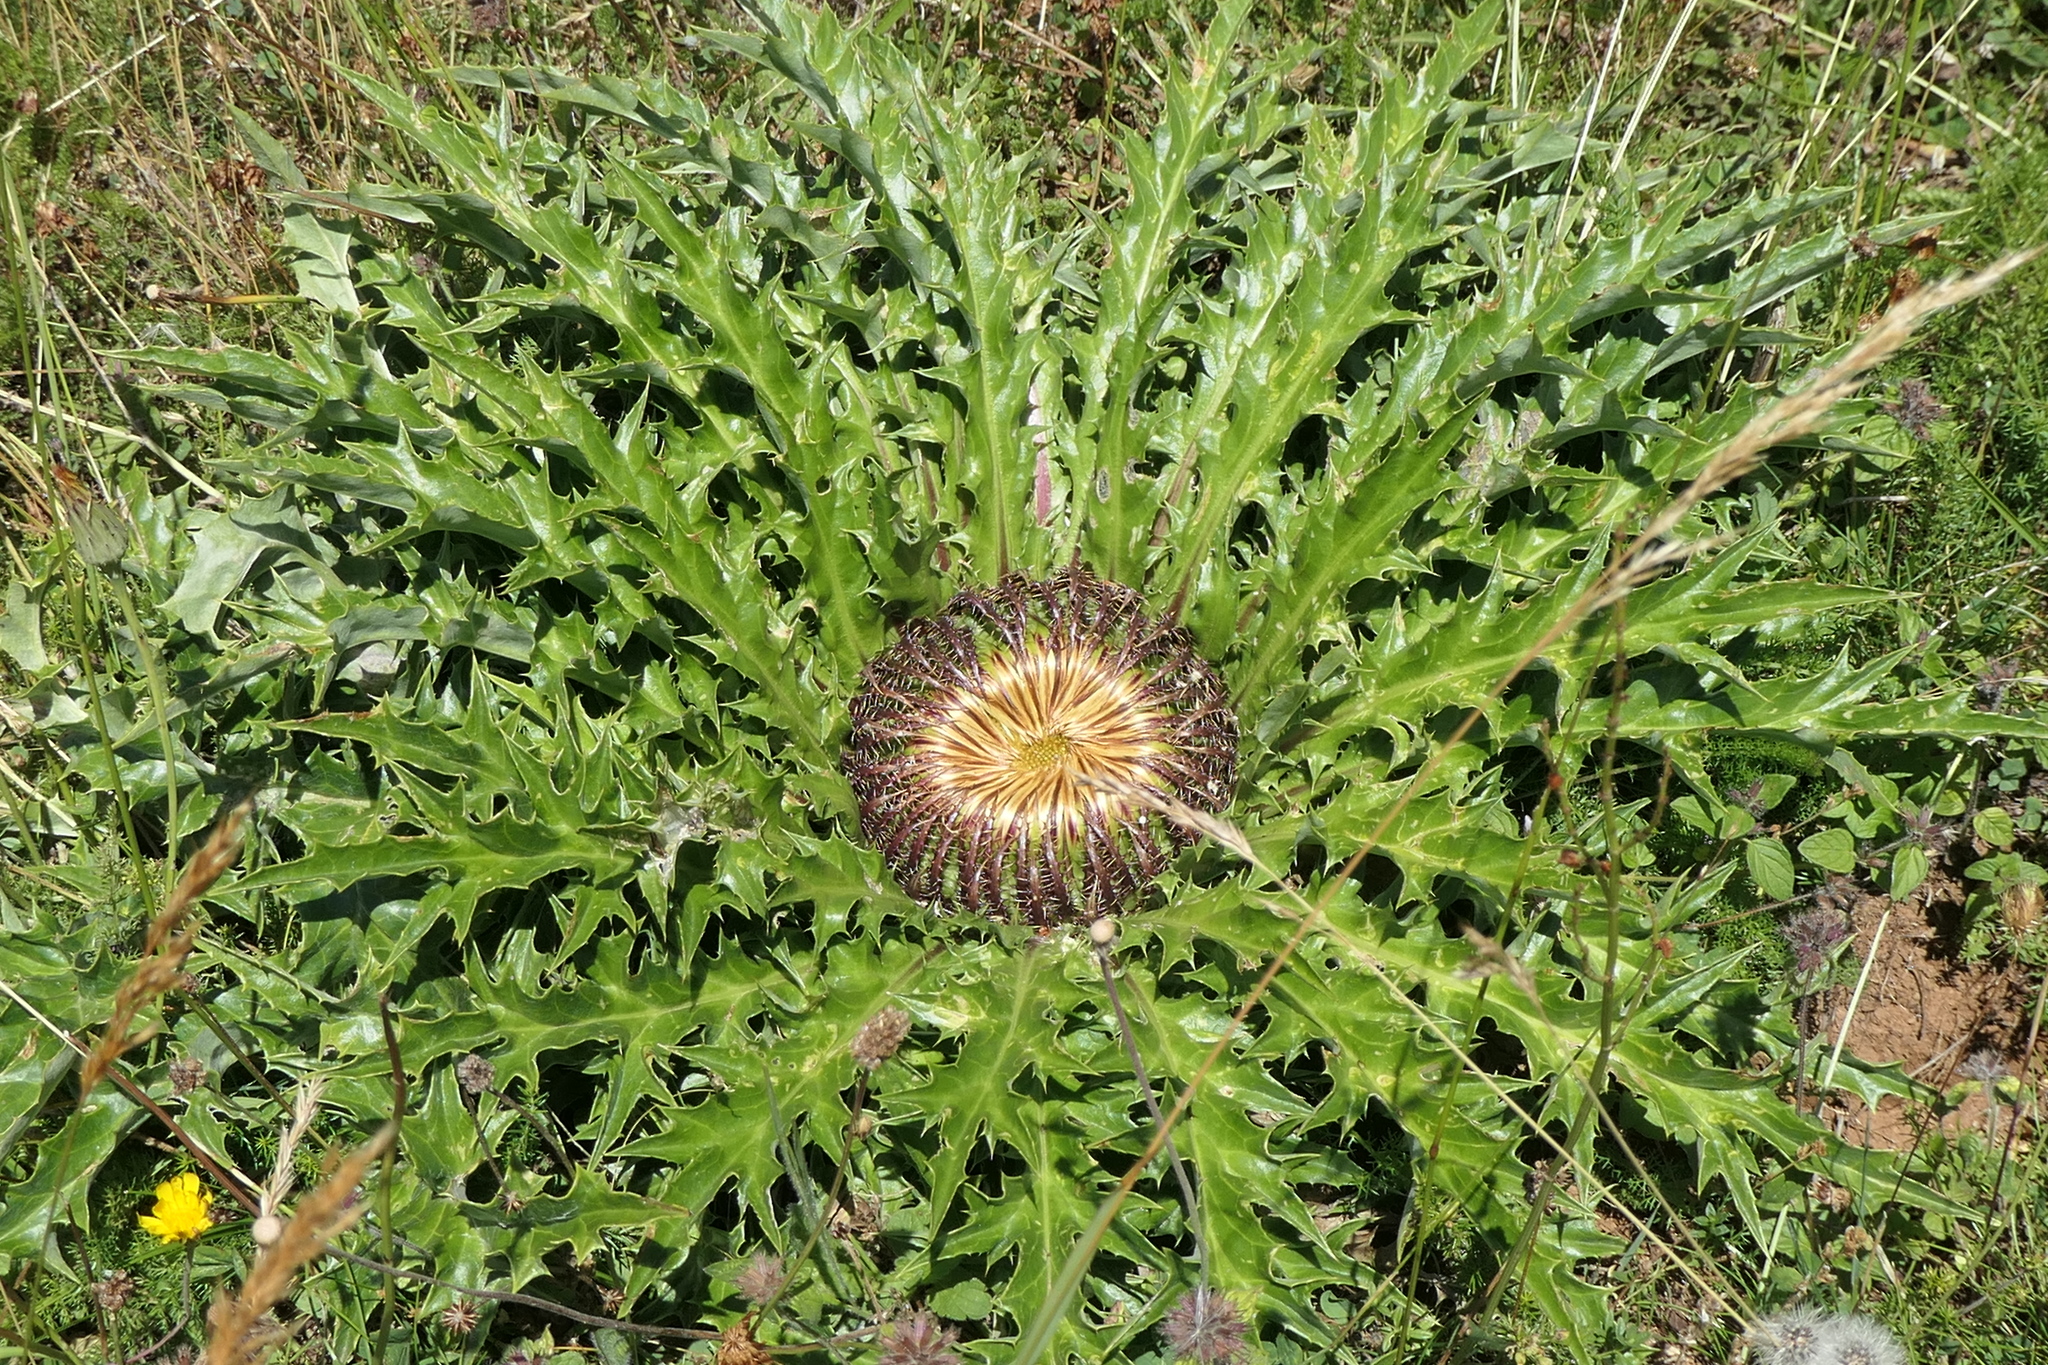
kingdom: Plantae
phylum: Tracheophyta
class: Magnoliopsida
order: Asterales
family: Asteraceae
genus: Carlina
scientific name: Carlina acanthifolia
